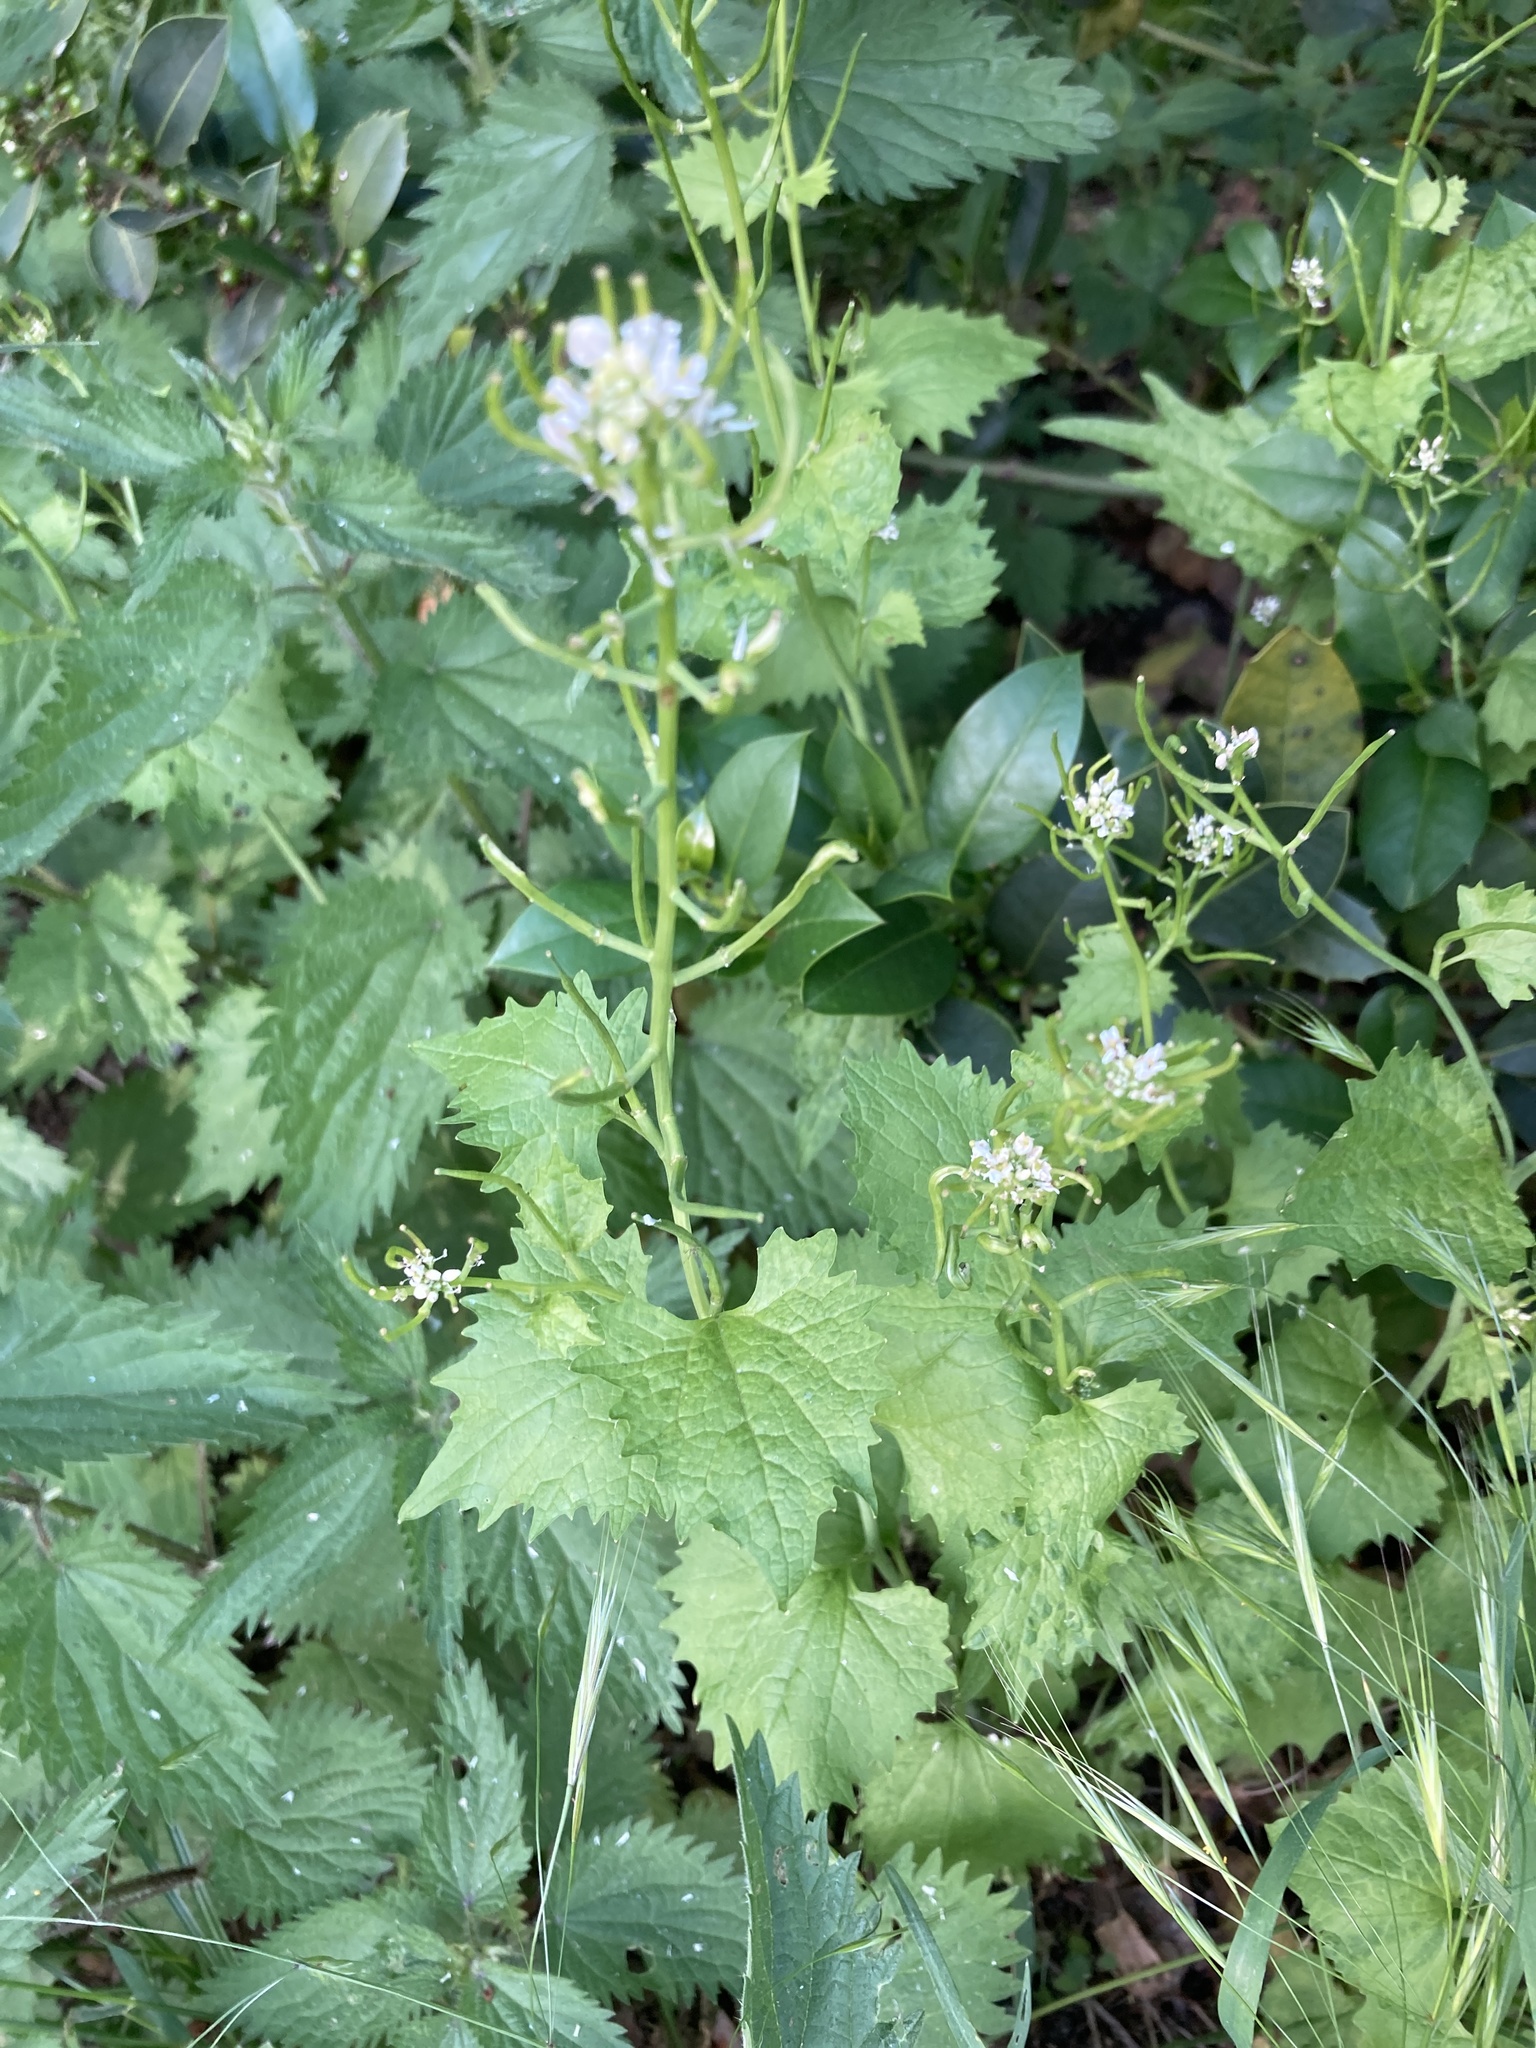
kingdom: Plantae
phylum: Tracheophyta
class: Magnoliopsida
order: Brassicales
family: Brassicaceae
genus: Alliaria
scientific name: Alliaria petiolata
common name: Garlic mustard
